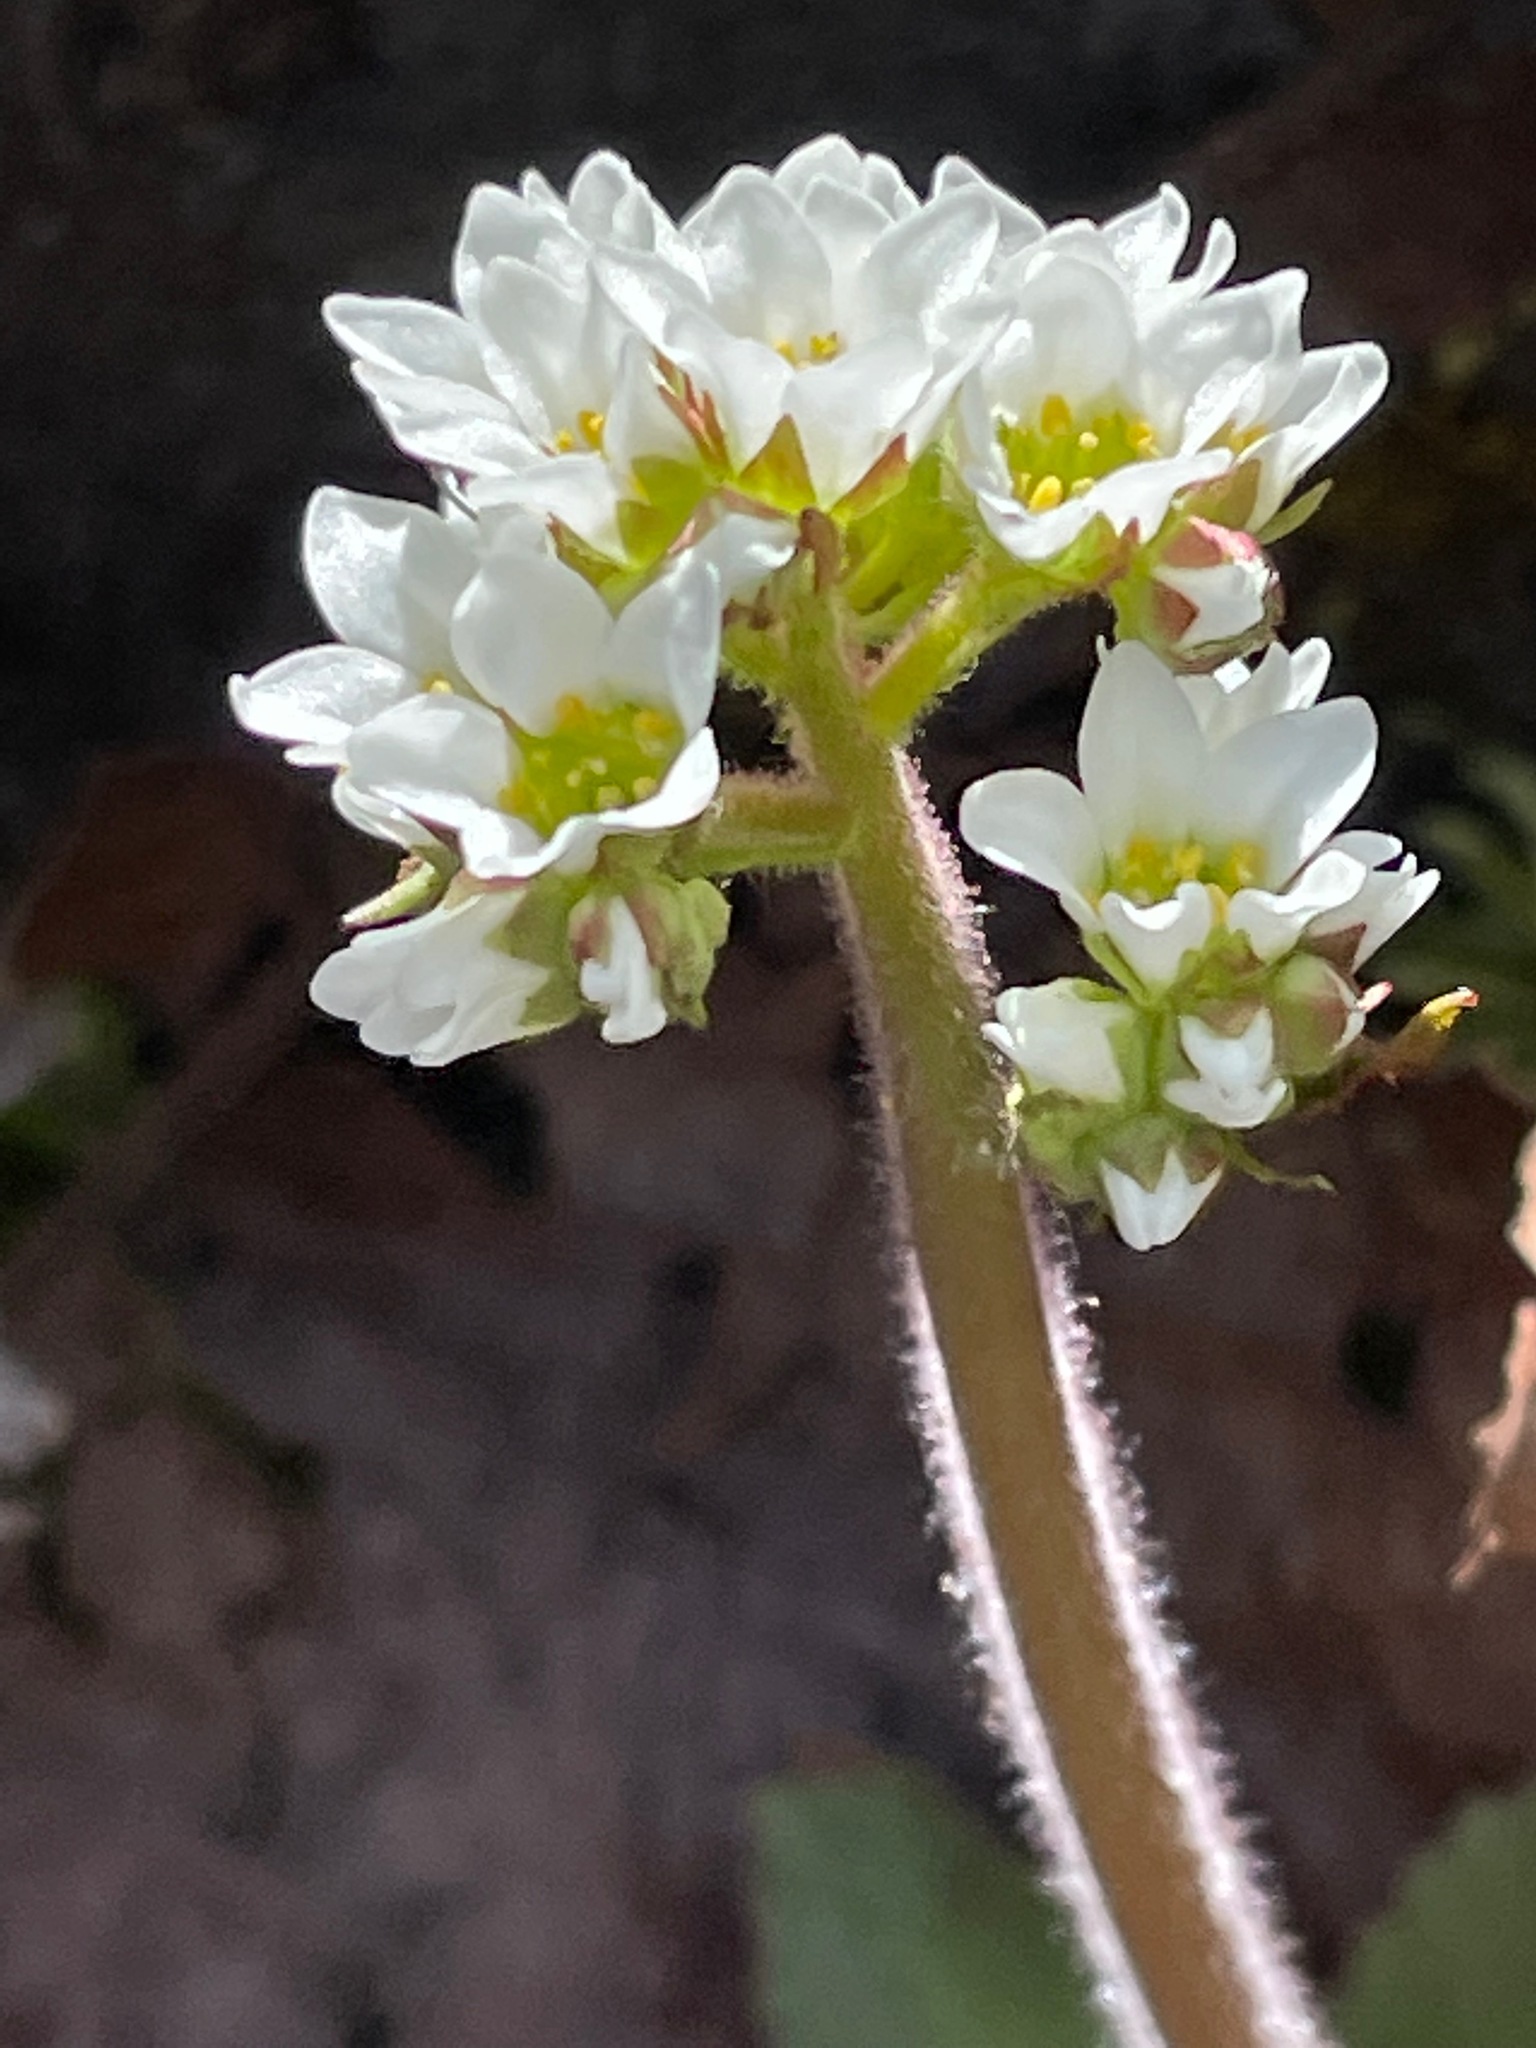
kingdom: Plantae
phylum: Tracheophyta
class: Magnoliopsida
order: Saxifragales
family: Saxifragaceae
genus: Micranthes
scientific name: Micranthes virginiensis
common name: Early saxifrage
